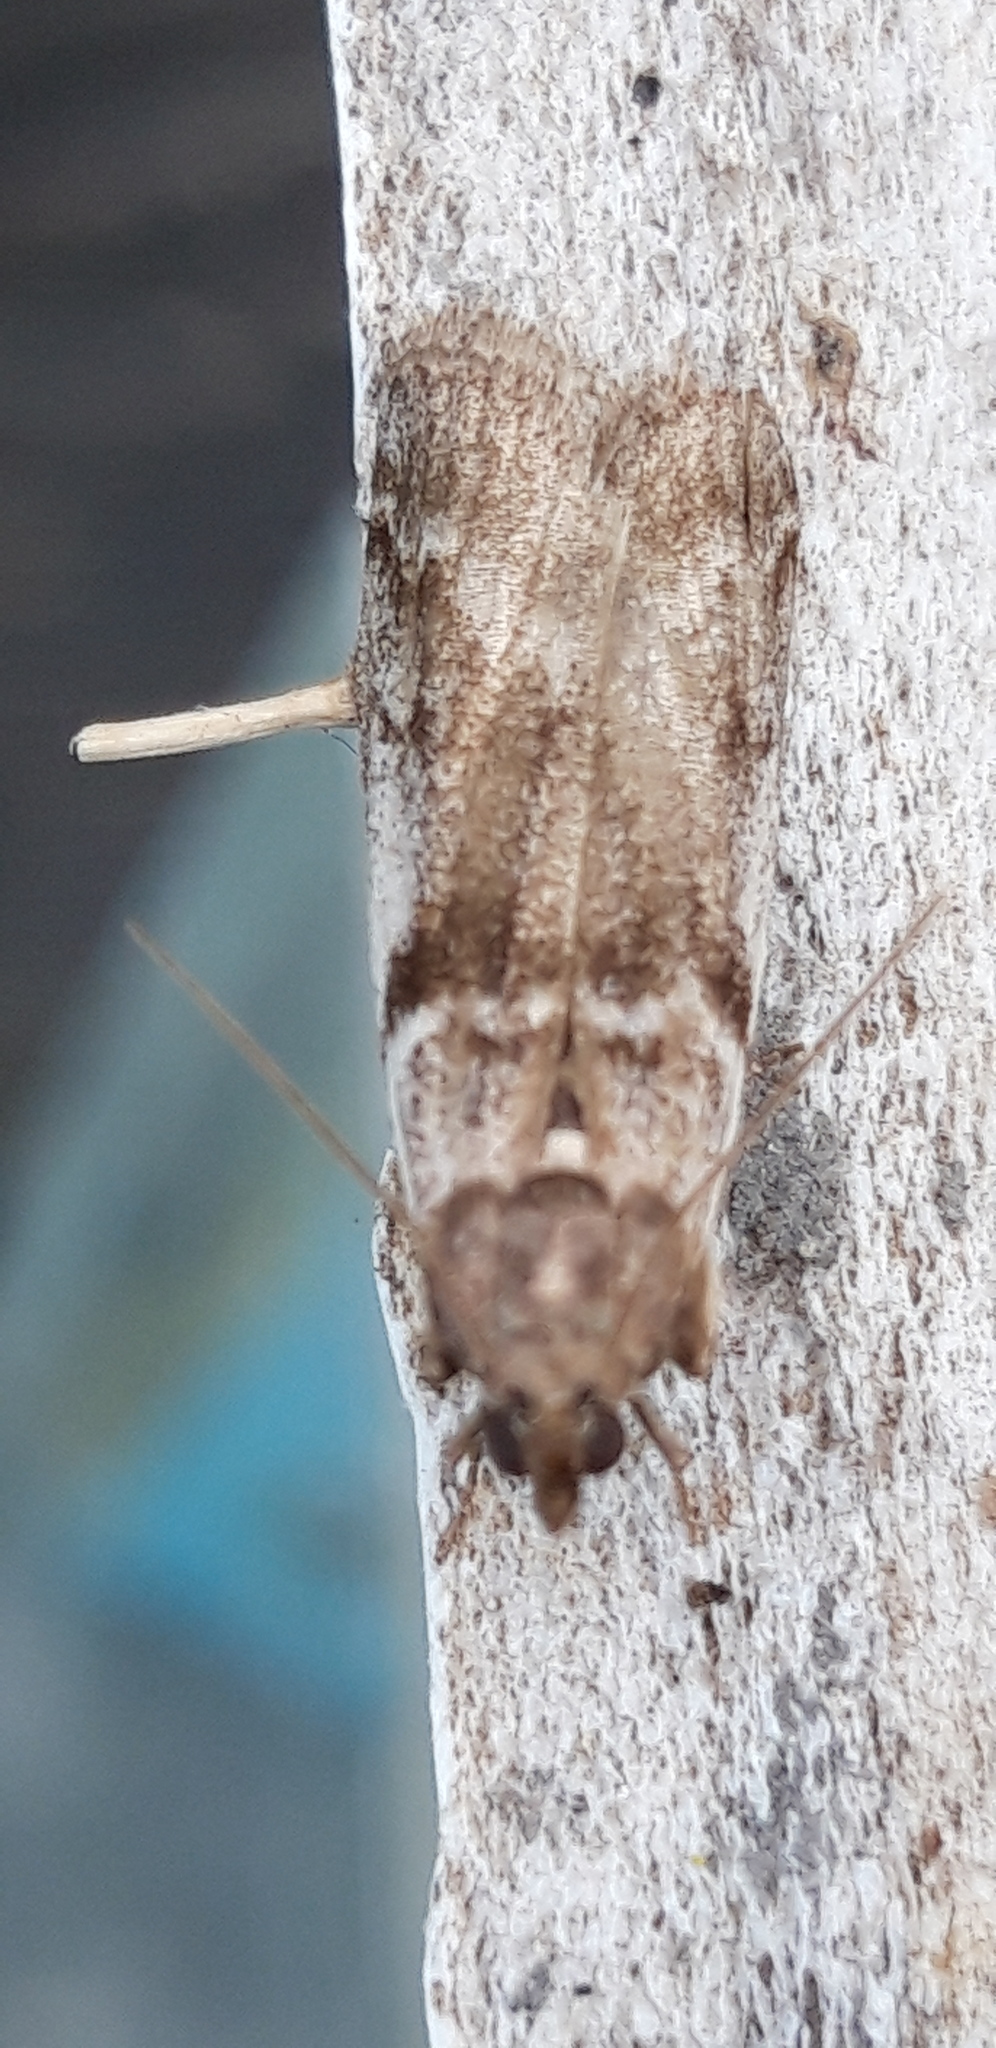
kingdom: Animalia
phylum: Arthropoda
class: Insecta
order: Lepidoptera
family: Pyralidae
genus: Zophodia
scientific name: Zophodia convolutella
